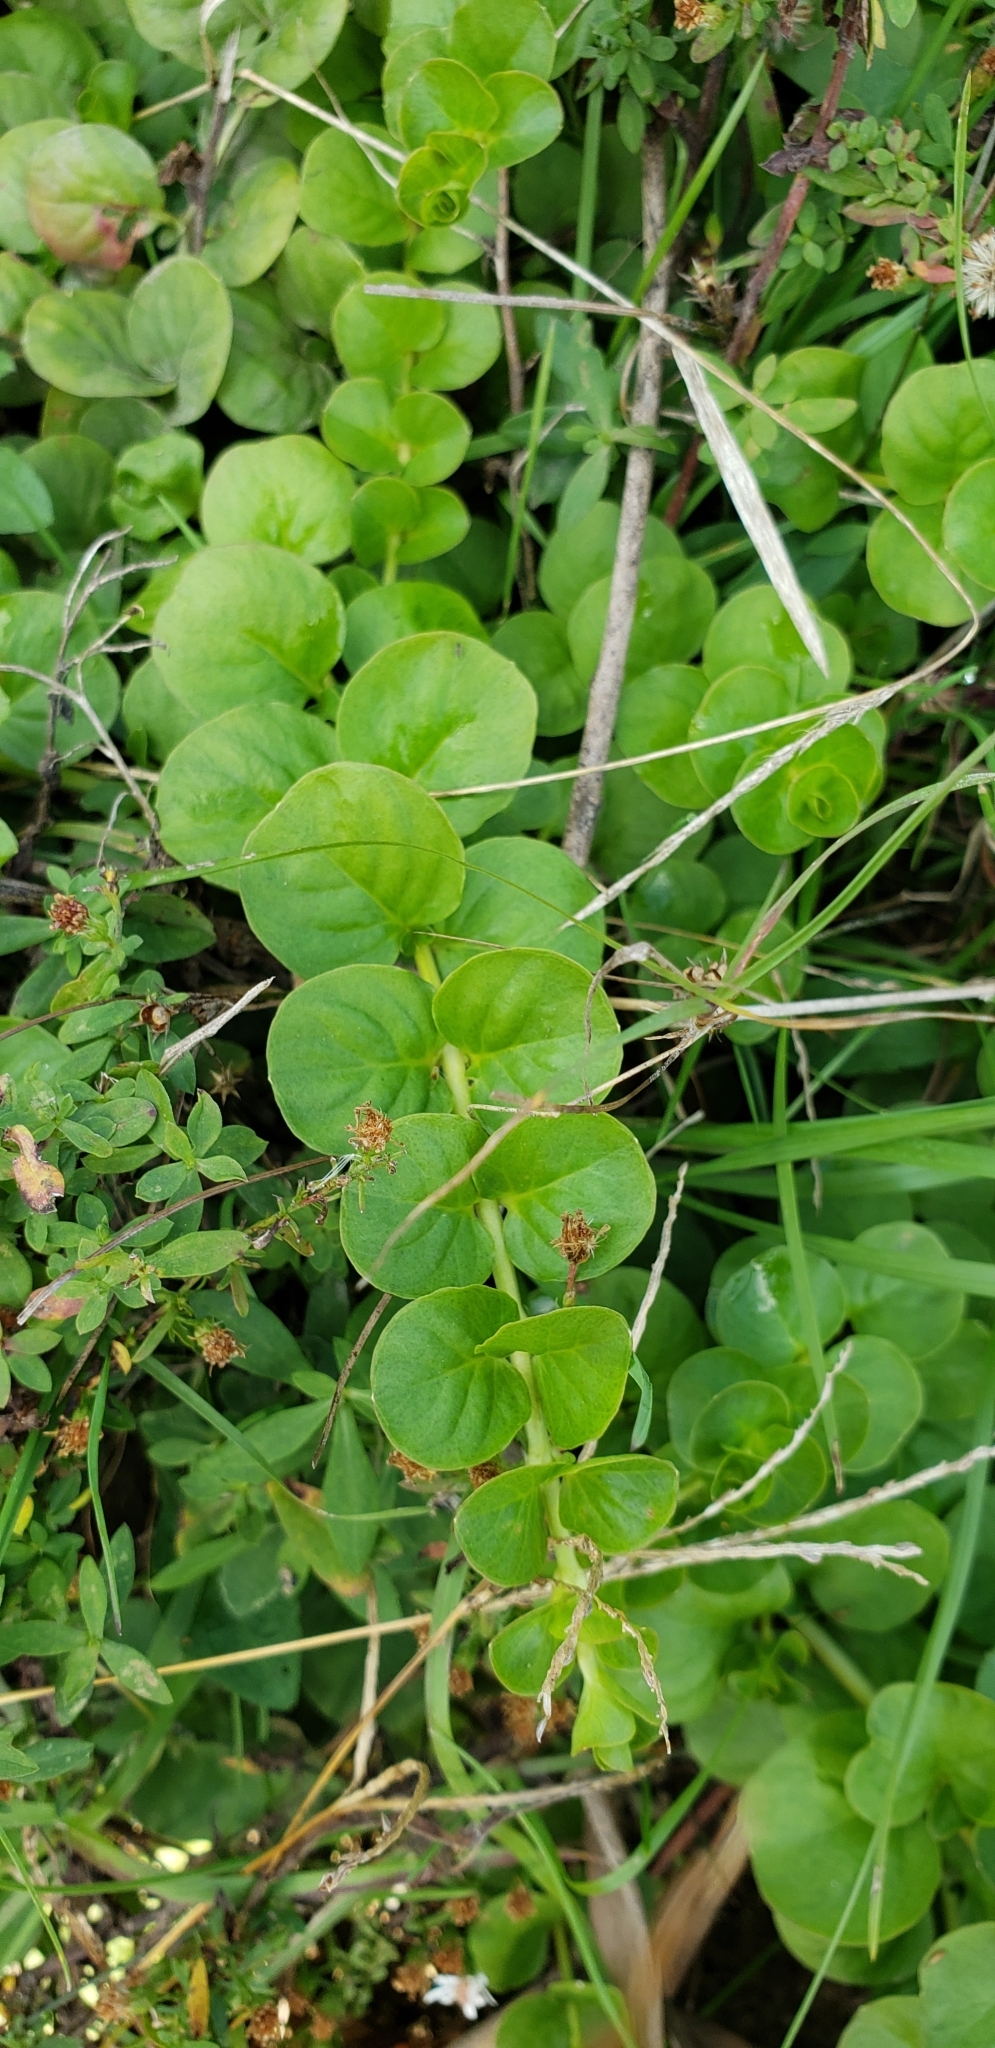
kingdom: Plantae
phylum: Tracheophyta
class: Magnoliopsida
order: Ericales
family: Primulaceae
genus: Lysimachia
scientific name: Lysimachia nummularia
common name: Moneywort
